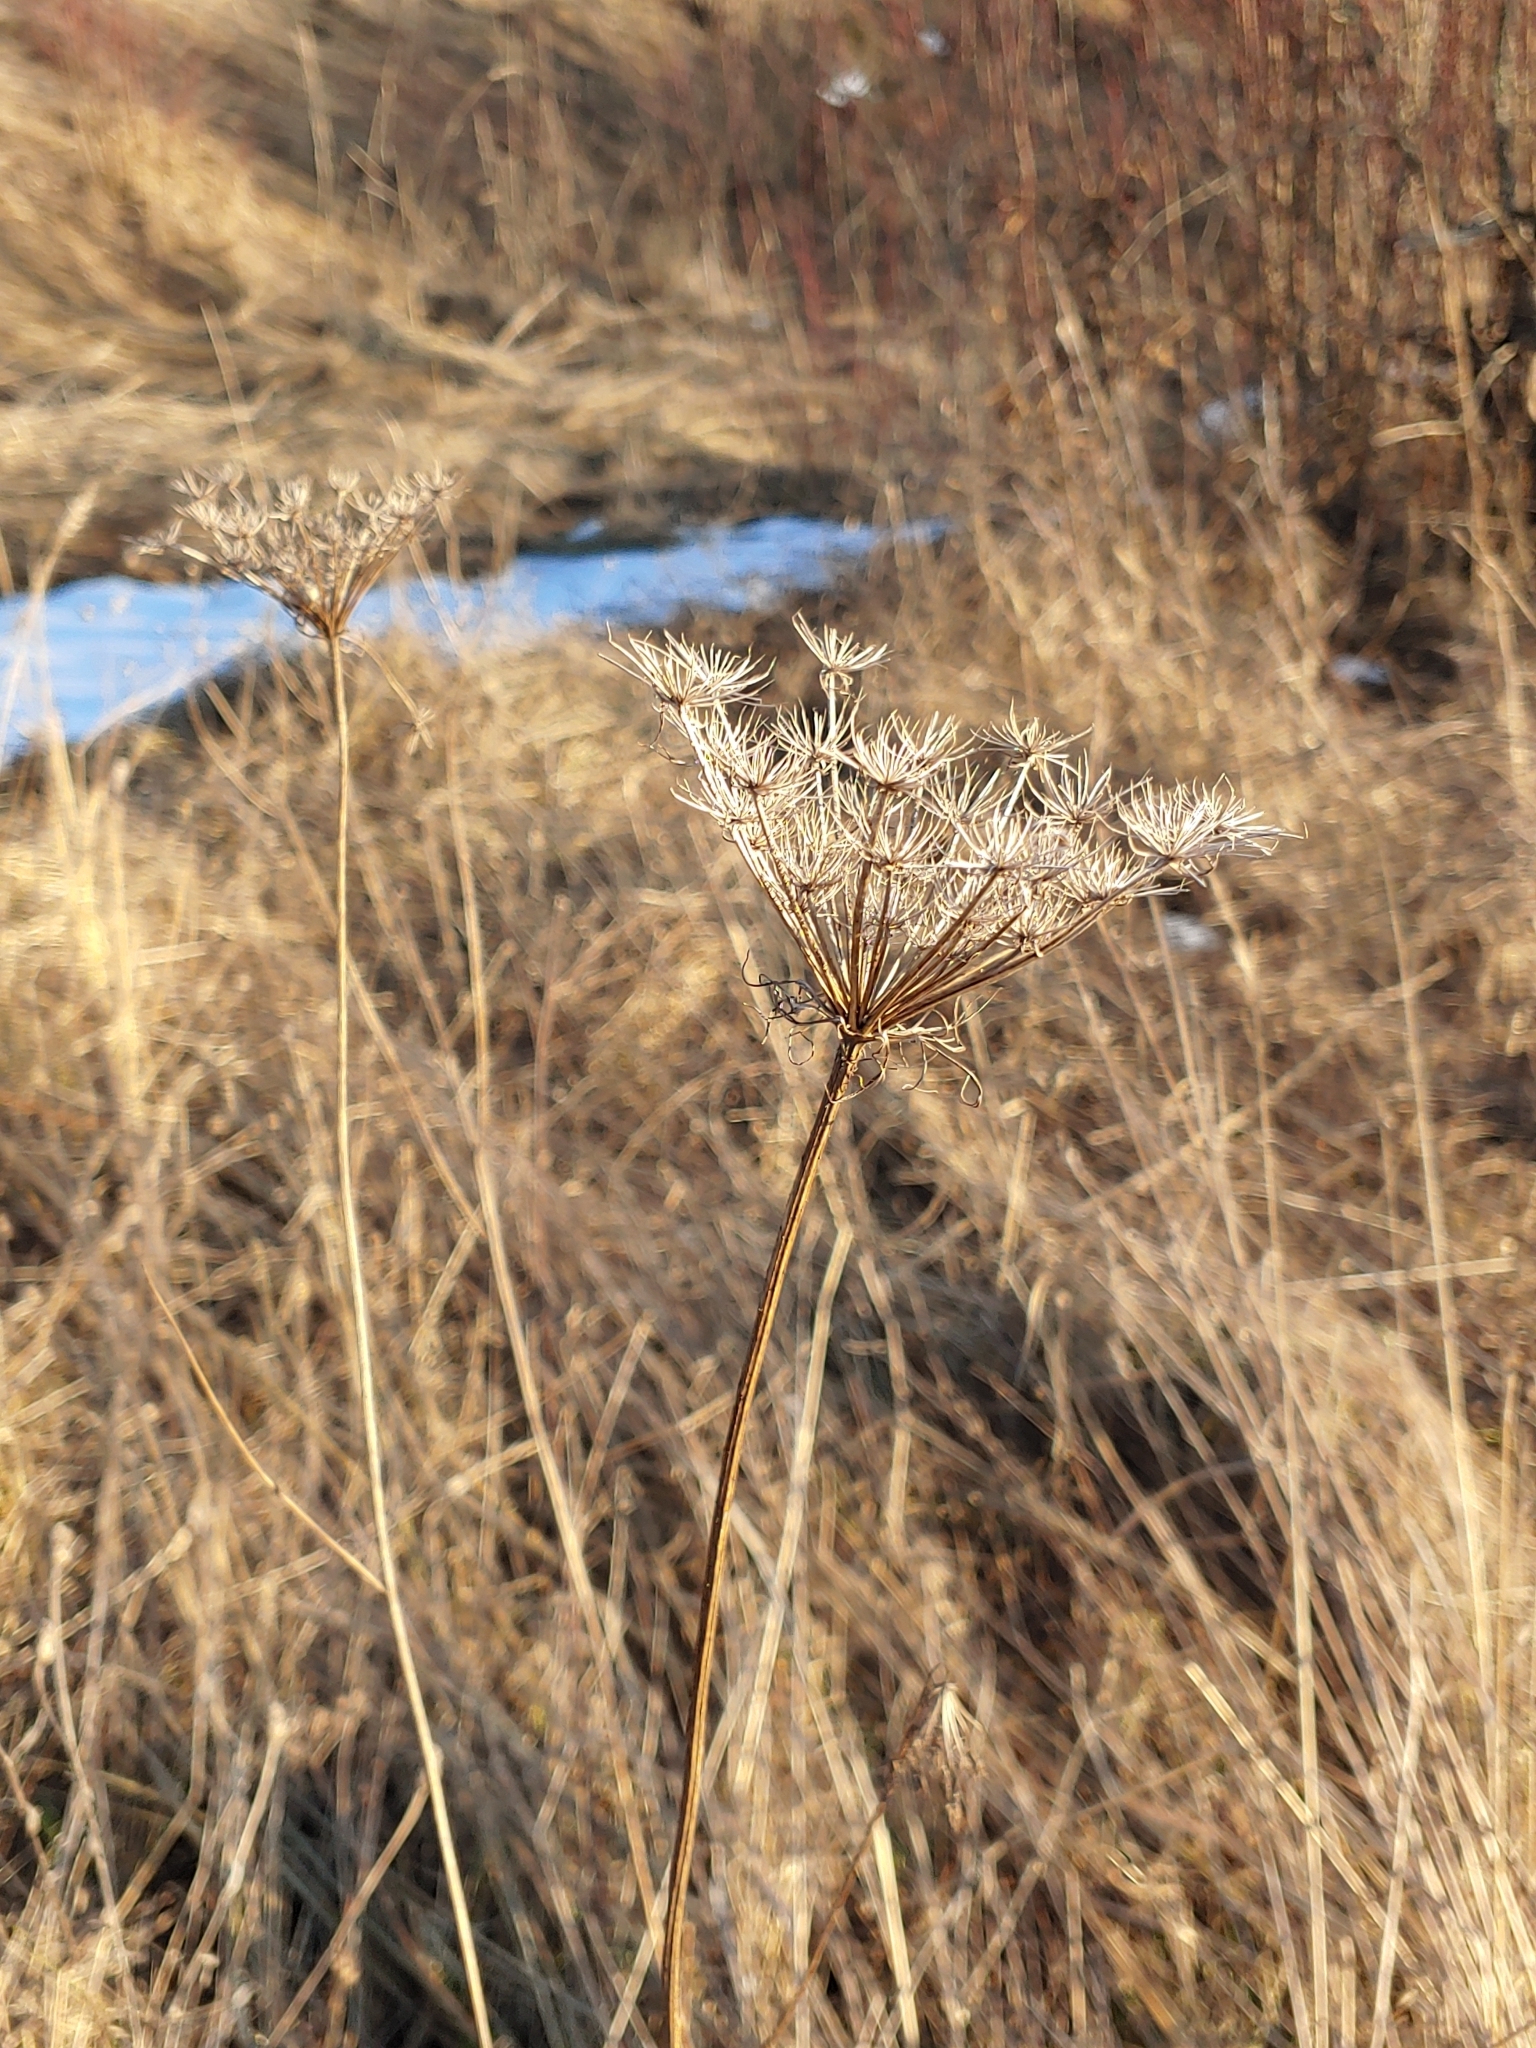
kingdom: Plantae
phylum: Tracheophyta
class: Magnoliopsida
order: Apiales
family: Apiaceae
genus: Daucus
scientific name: Daucus carota
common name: Wild carrot
